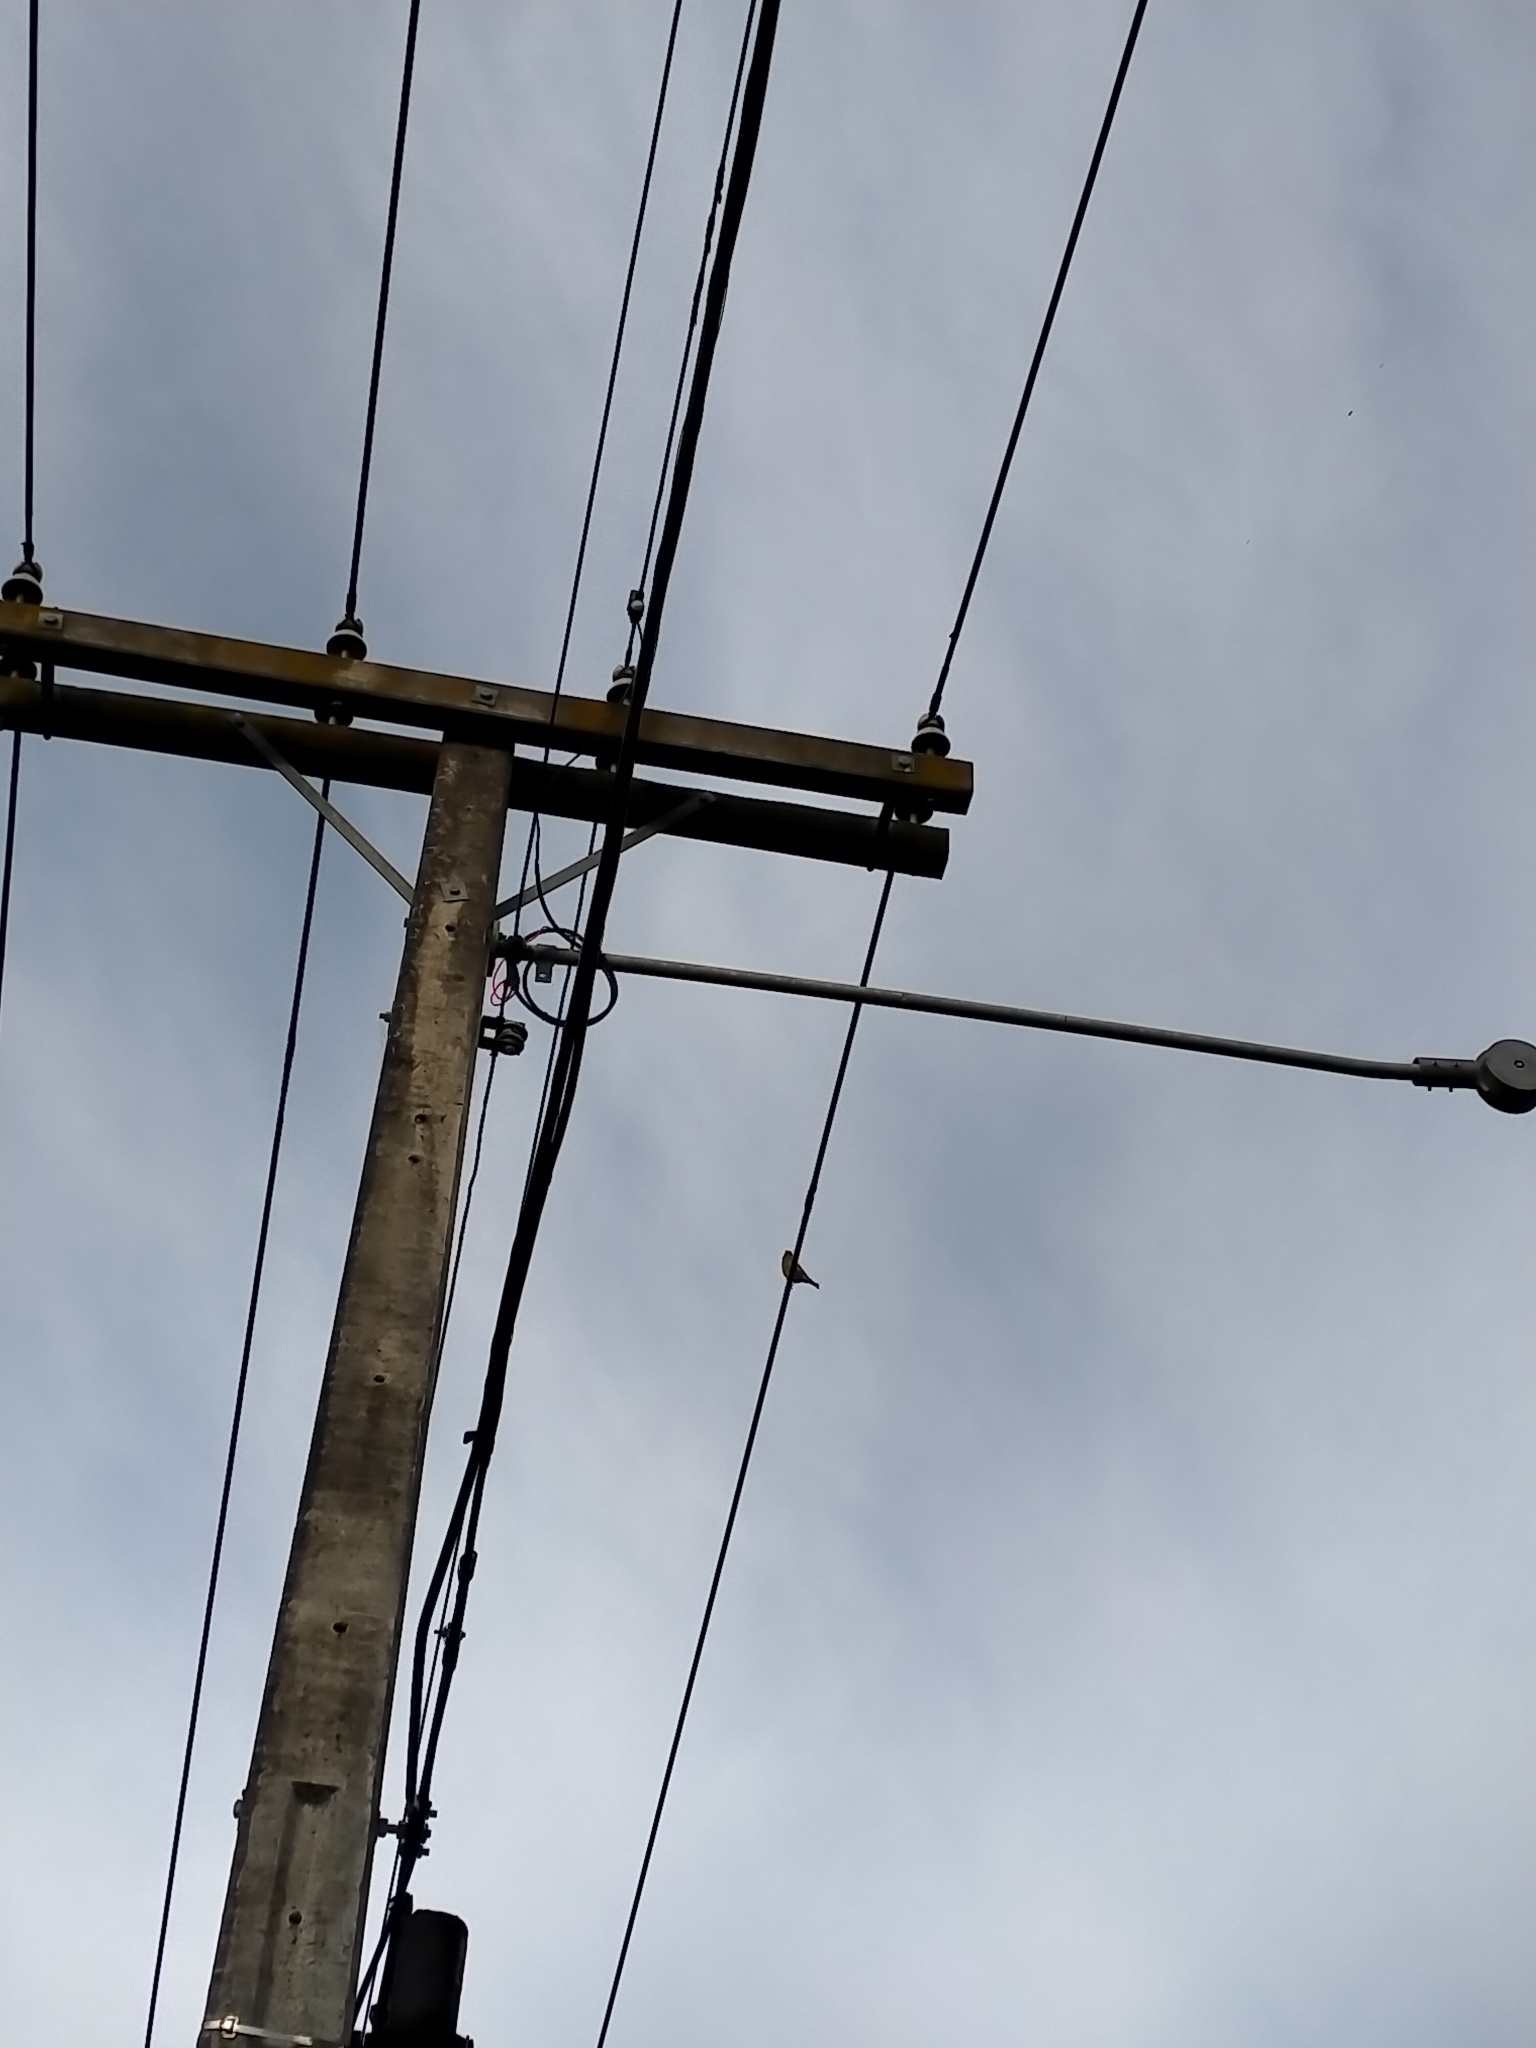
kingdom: Plantae
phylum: Tracheophyta
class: Liliopsida
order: Poales
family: Poaceae
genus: Chloris
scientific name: Chloris chloris
